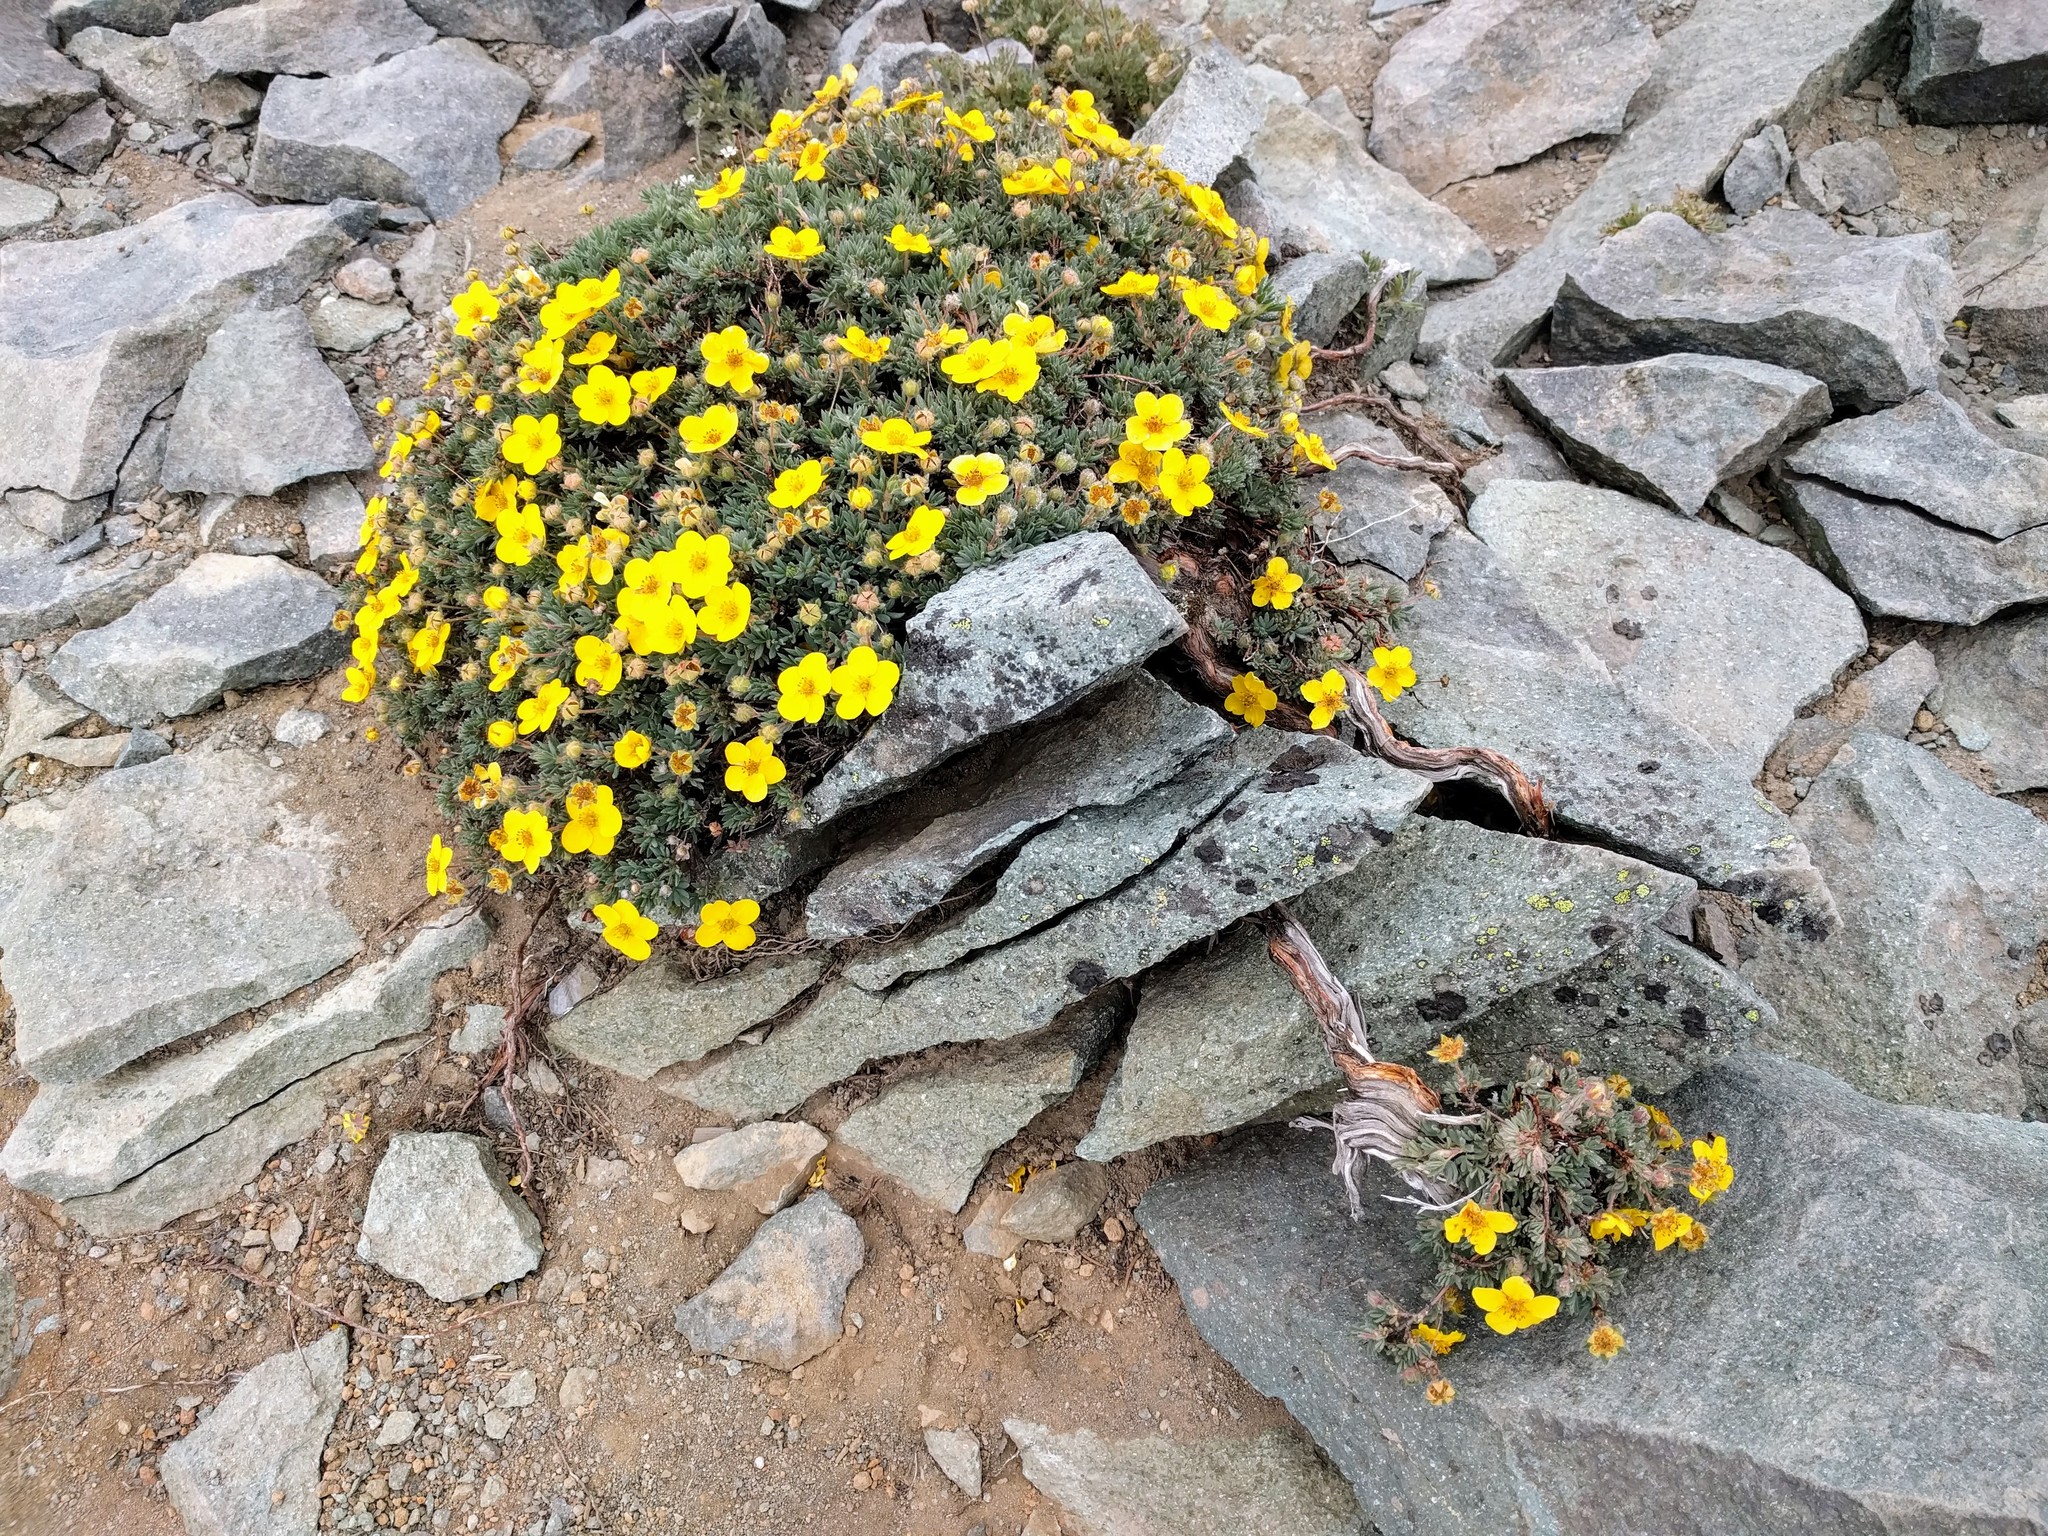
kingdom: Plantae
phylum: Tracheophyta
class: Magnoliopsida
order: Rosales
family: Rosaceae
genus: Dasiphora
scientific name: Dasiphora fruticosa
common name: Shrubby cinquefoil
